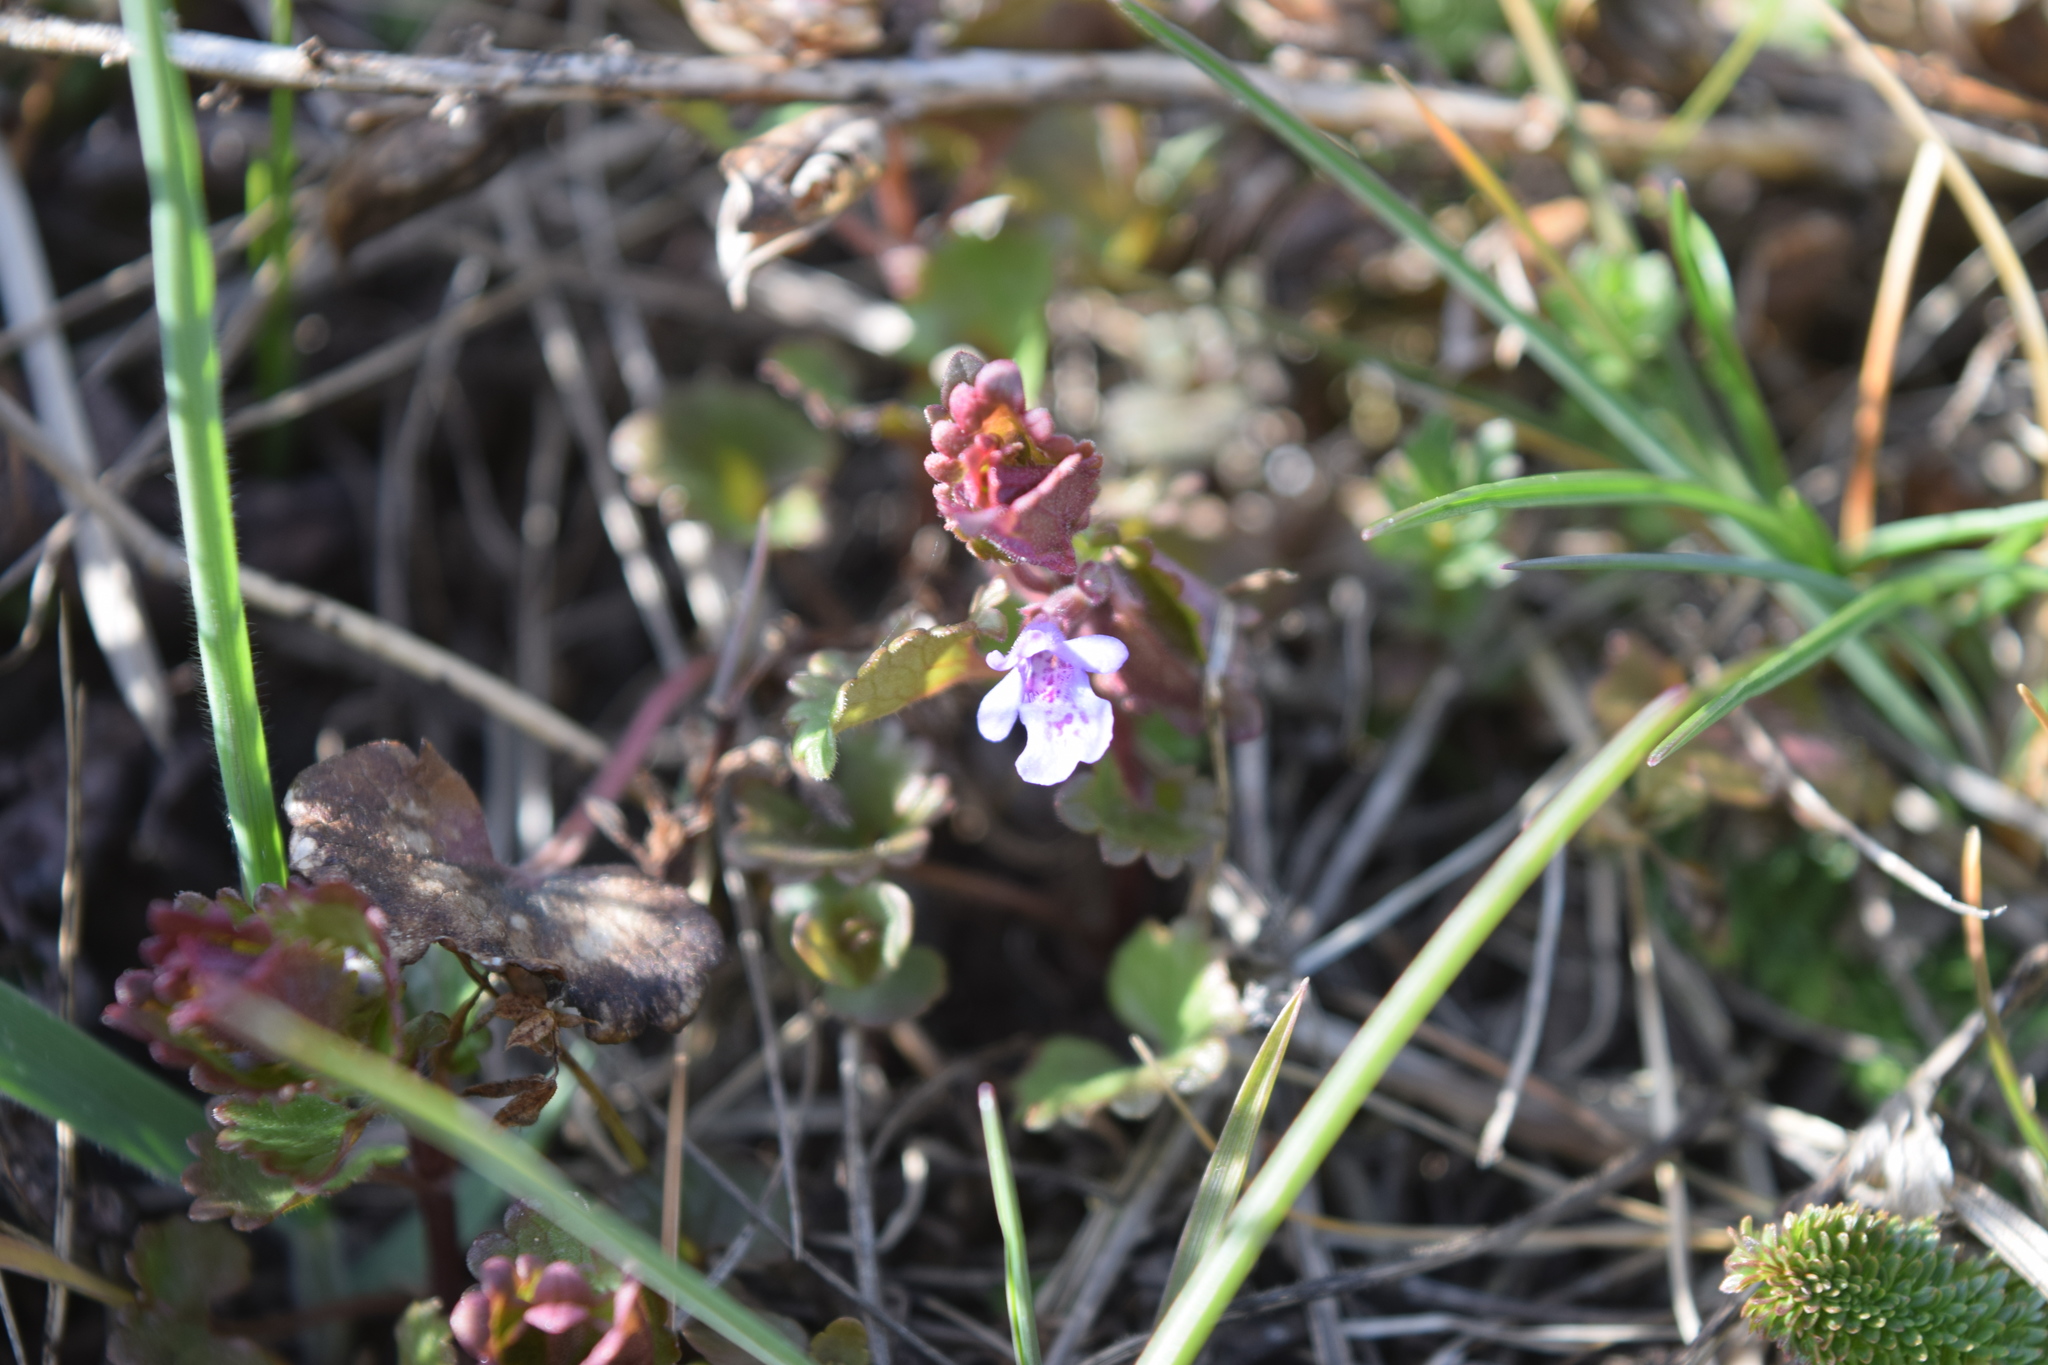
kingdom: Plantae
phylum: Tracheophyta
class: Magnoliopsida
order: Lamiales
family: Lamiaceae
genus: Glechoma
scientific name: Glechoma hederacea
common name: Ground ivy
